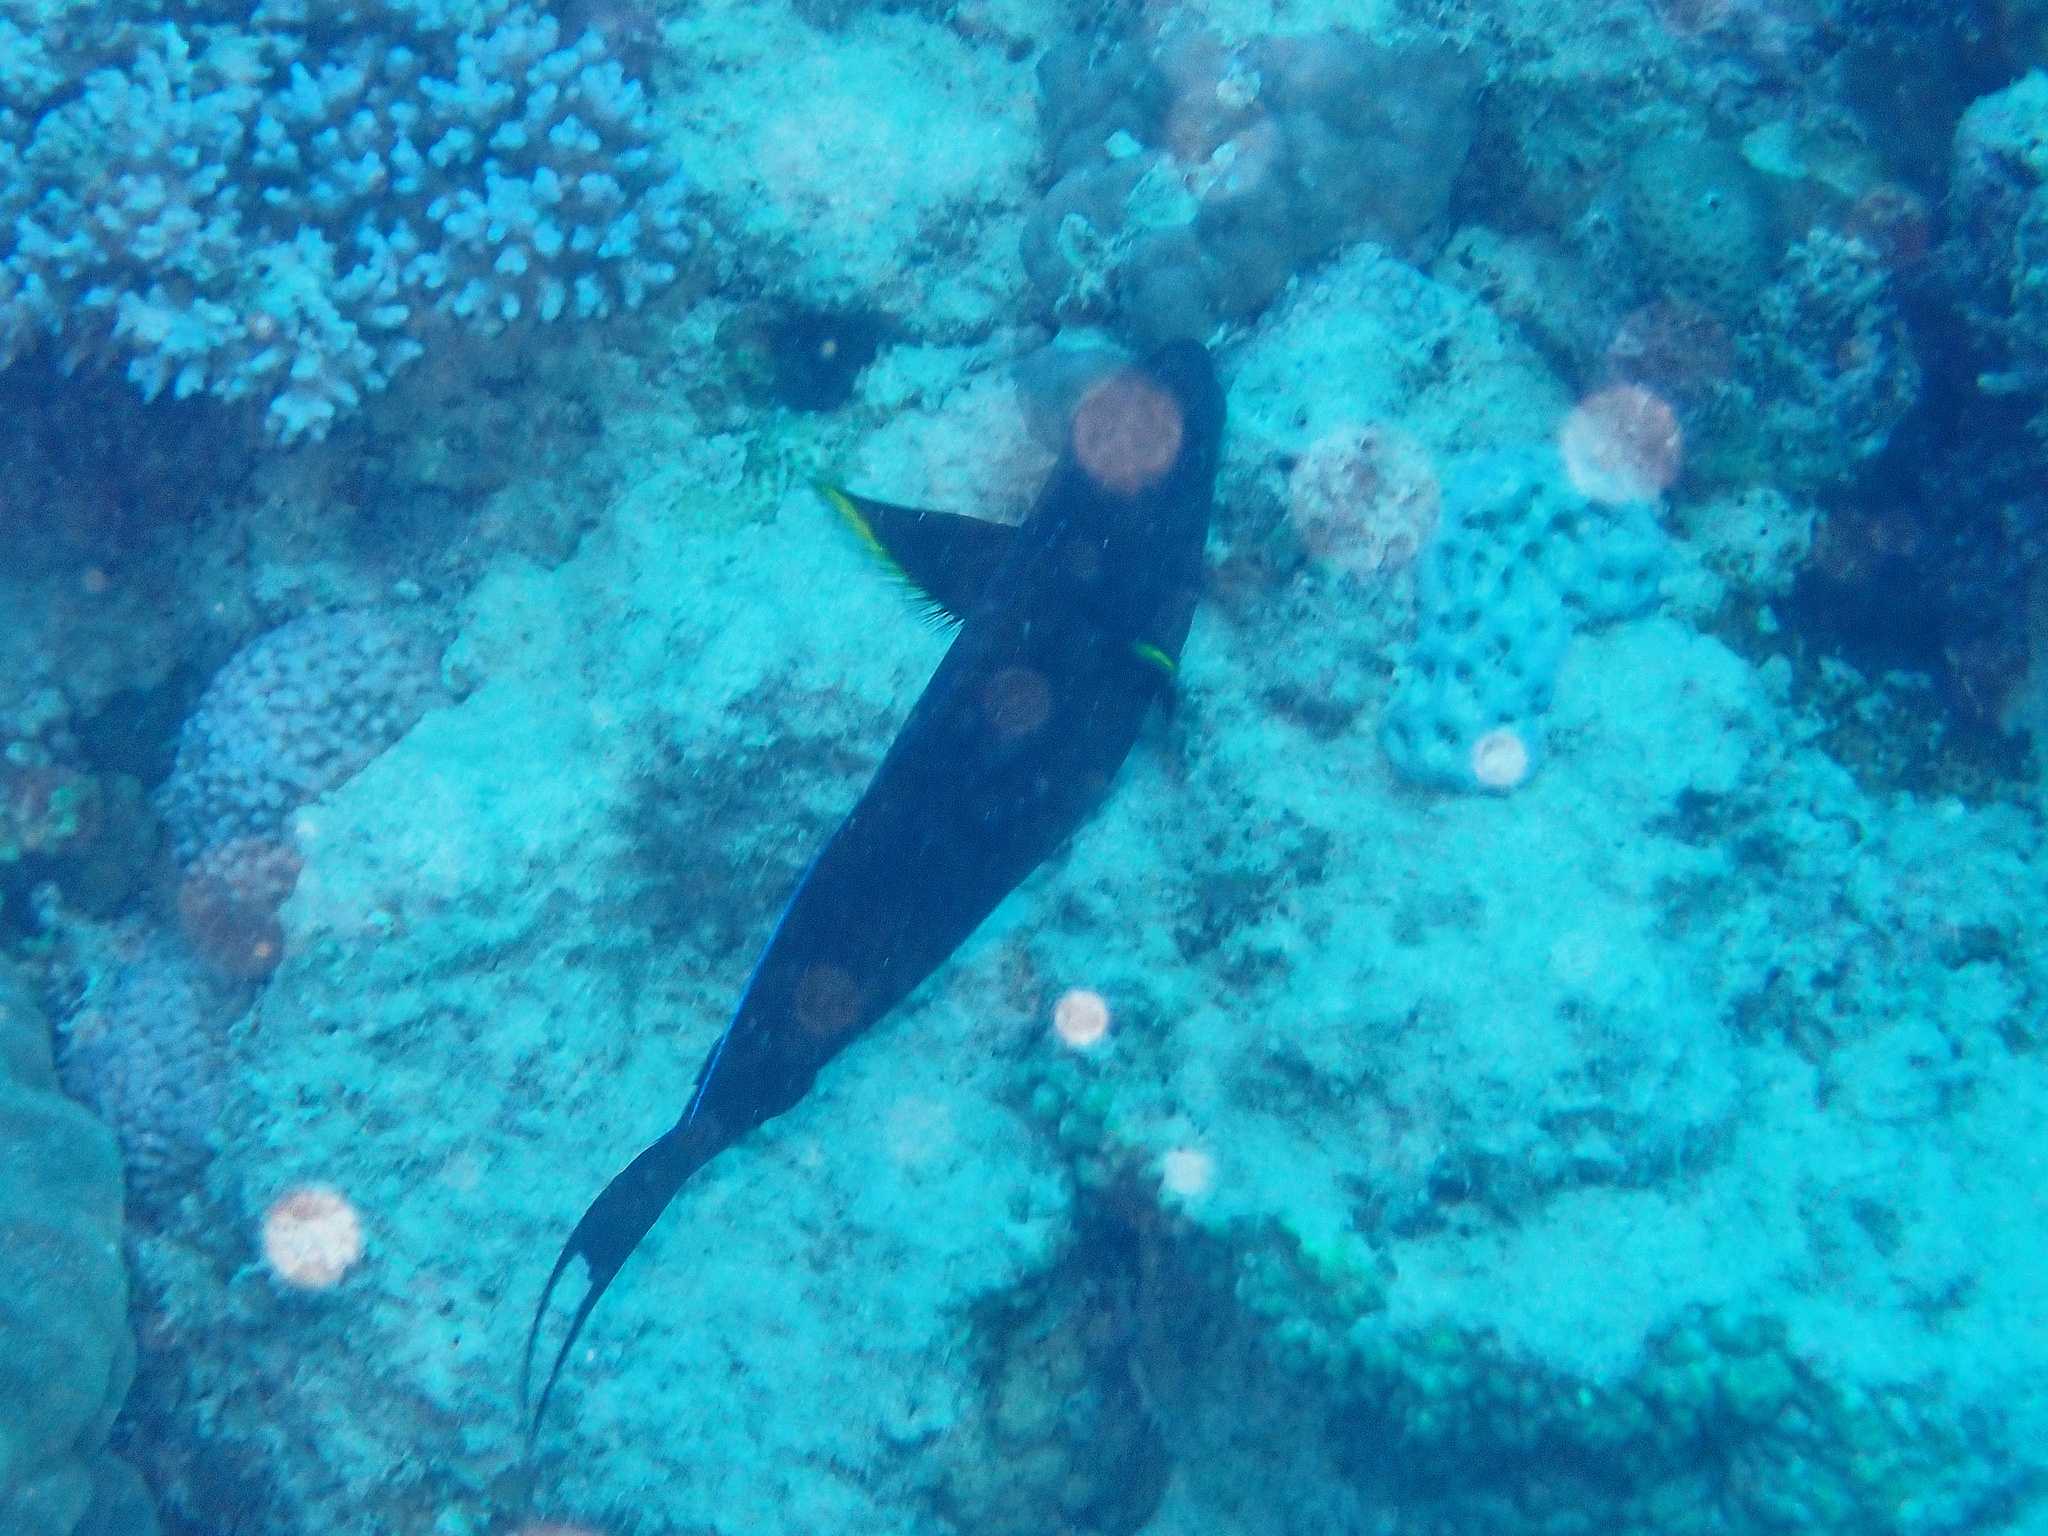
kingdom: Animalia
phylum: Chordata
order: Perciformes
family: Acanthuridae
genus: Acanthurus
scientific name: Acanthurus nigricauda
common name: Black-barred surgeonfish
